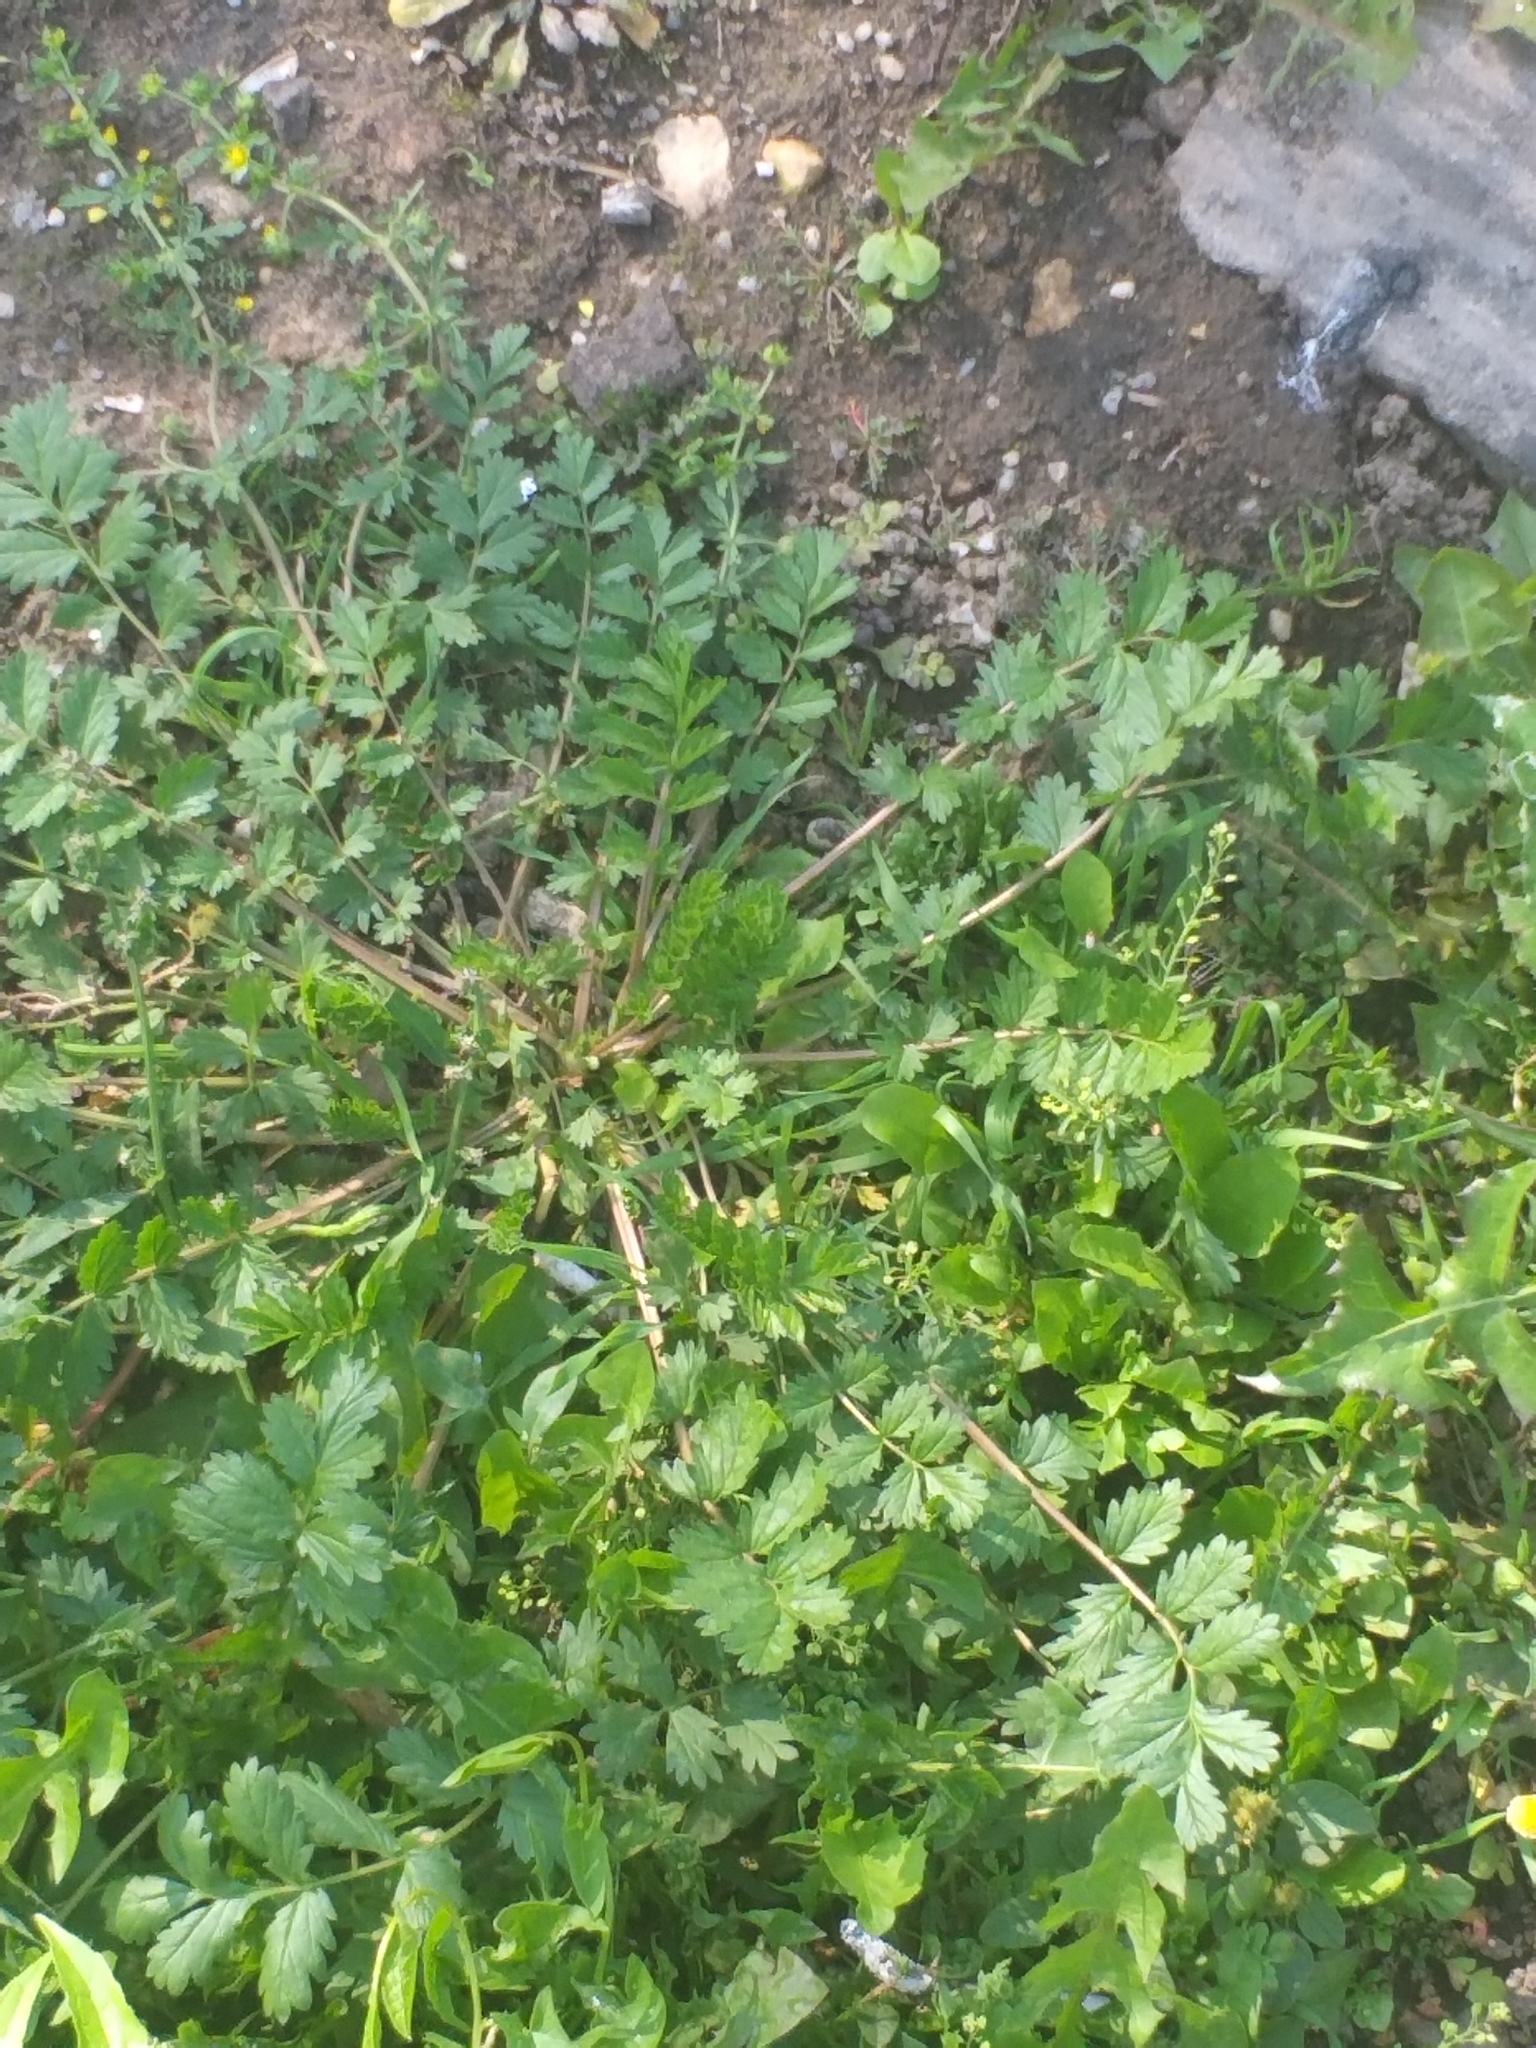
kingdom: Plantae
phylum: Tracheophyta
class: Magnoliopsida
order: Rosales
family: Rosaceae
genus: Potentilla
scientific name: Potentilla supina
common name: Prostrate cinquefoil
